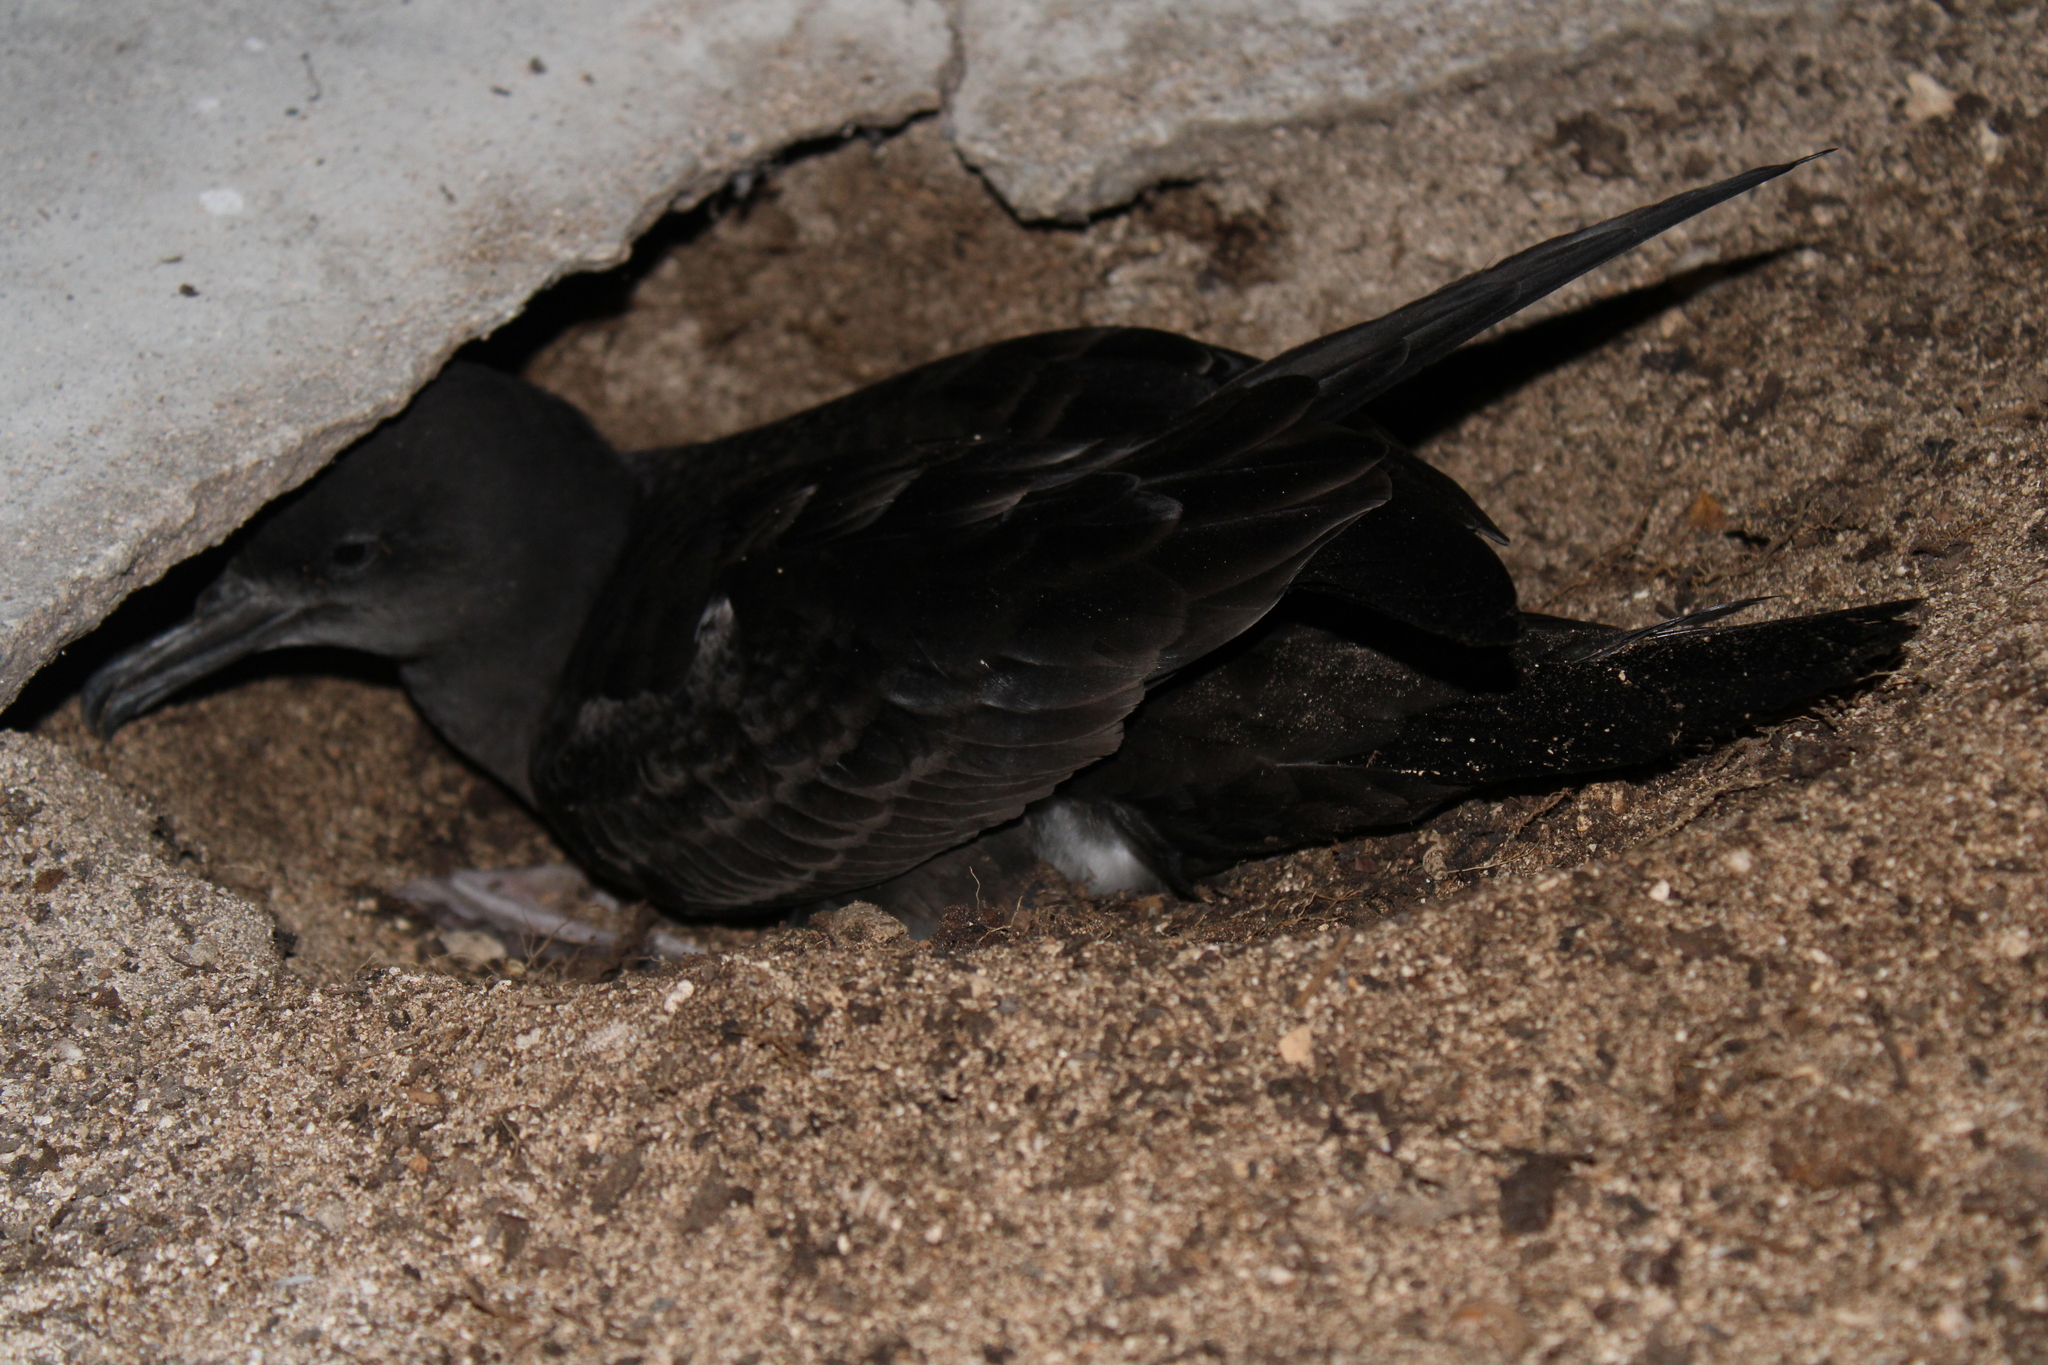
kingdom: Animalia
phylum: Chordata
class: Aves
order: Procellariiformes
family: Procellariidae
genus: Puffinus
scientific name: Puffinus pacificus
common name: Wedge-tailed shearwater
